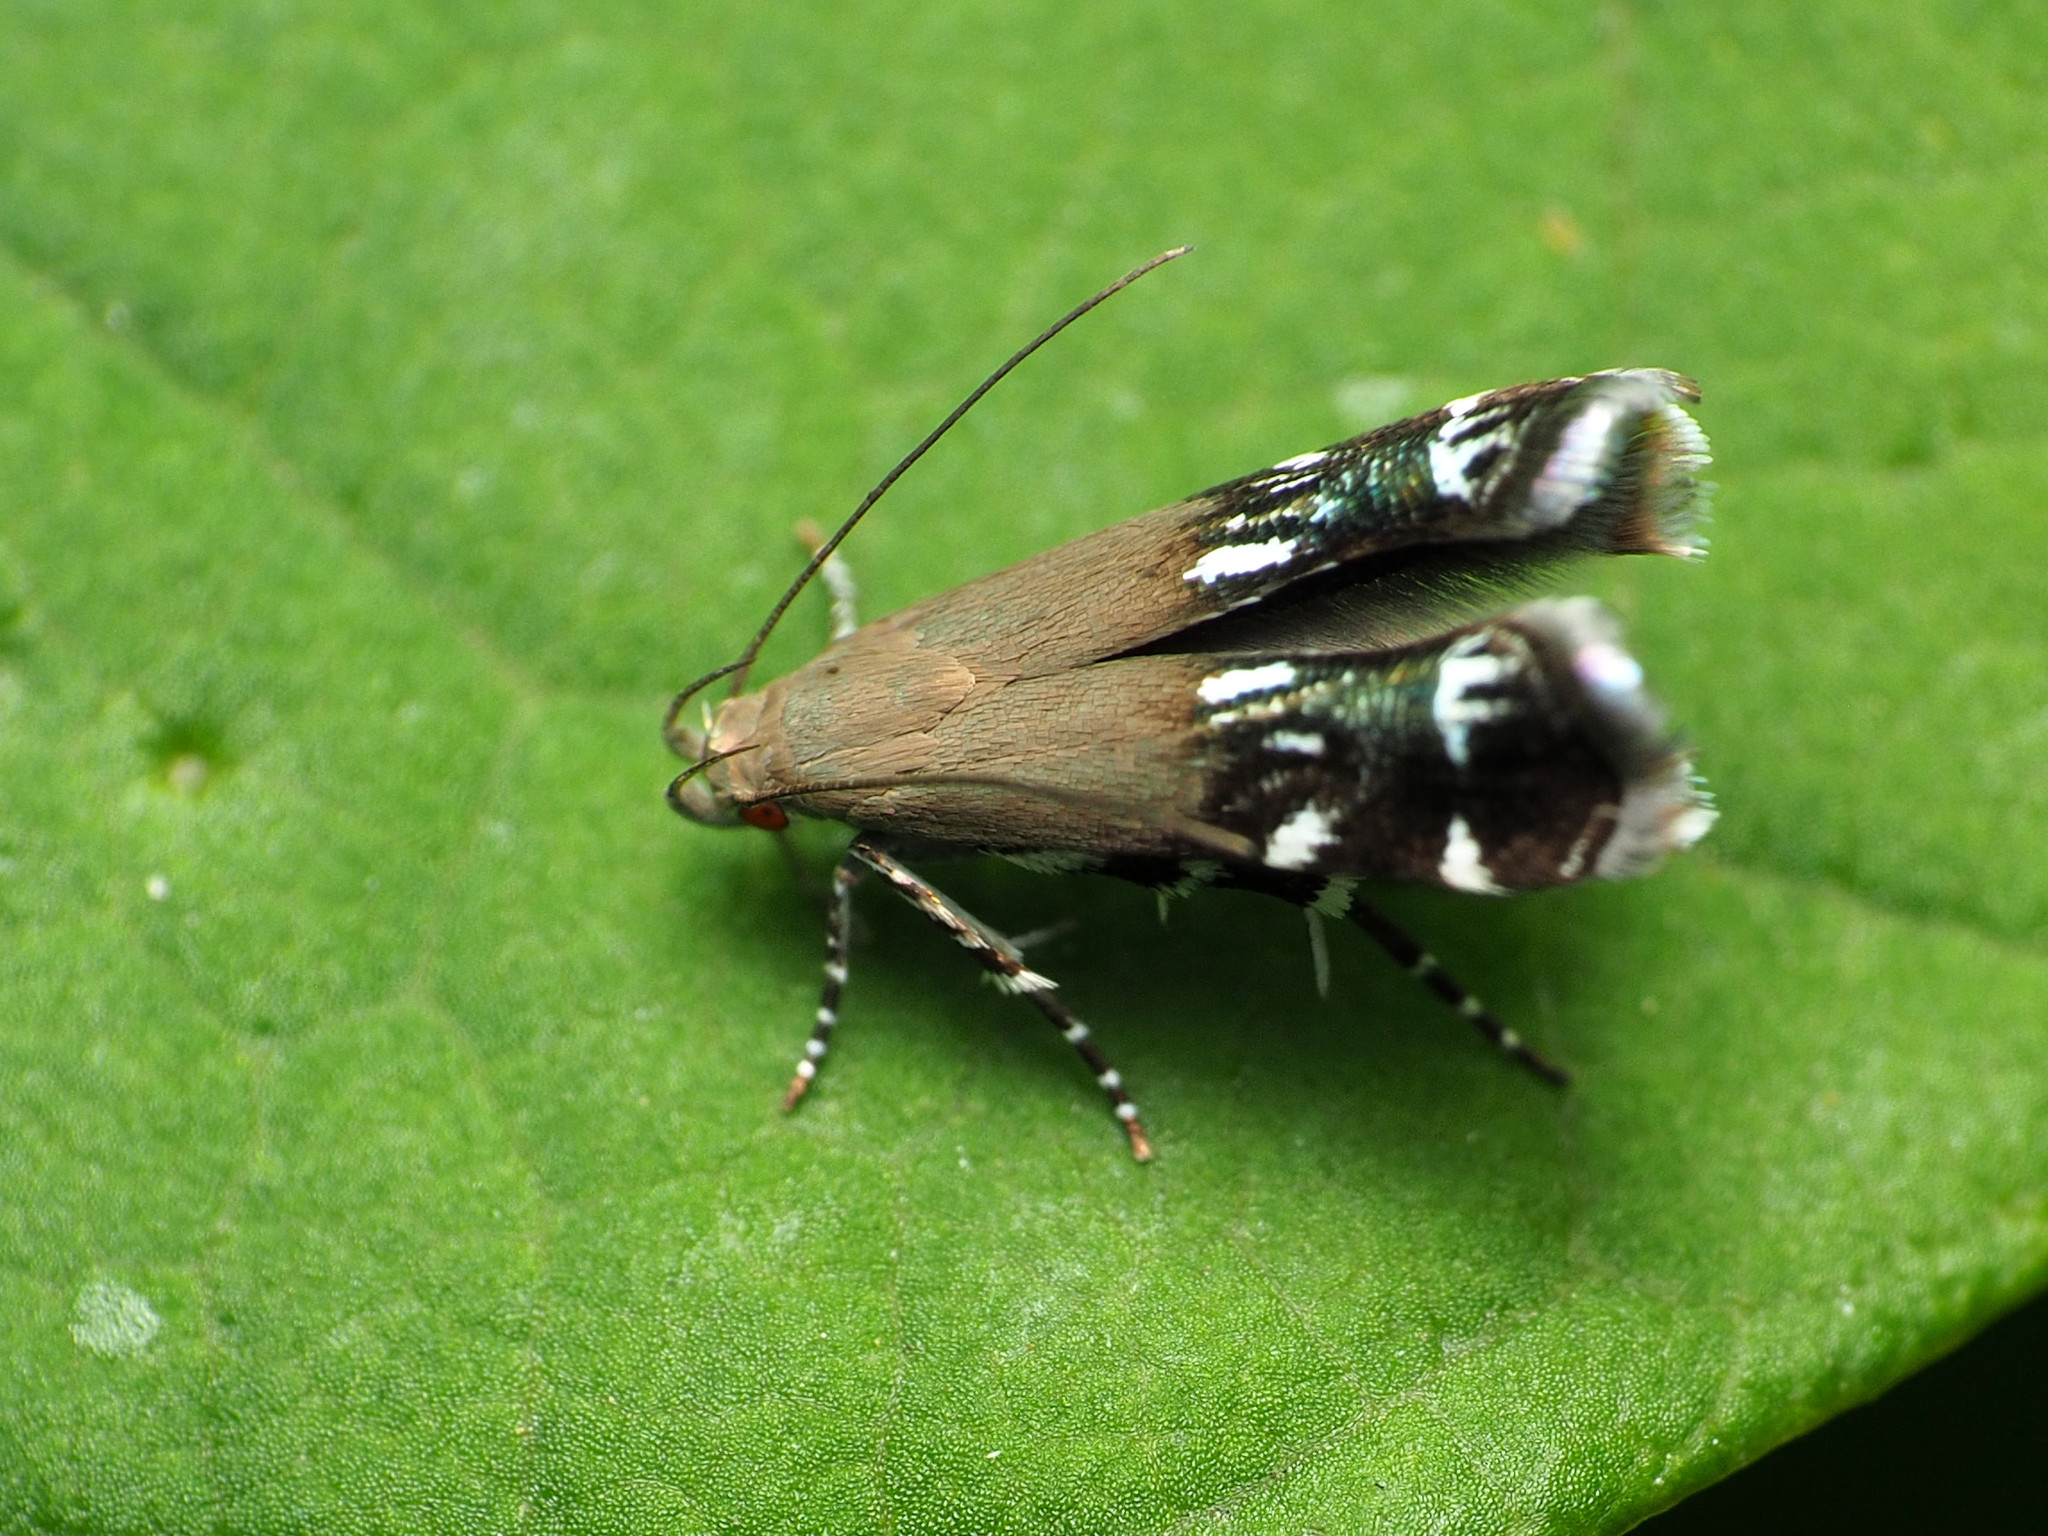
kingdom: Animalia
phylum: Arthropoda
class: Insecta
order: Lepidoptera
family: Gelechiidae
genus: Anacampsis
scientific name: Anacampsis levipedella
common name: Silver-dashed anacampsis
